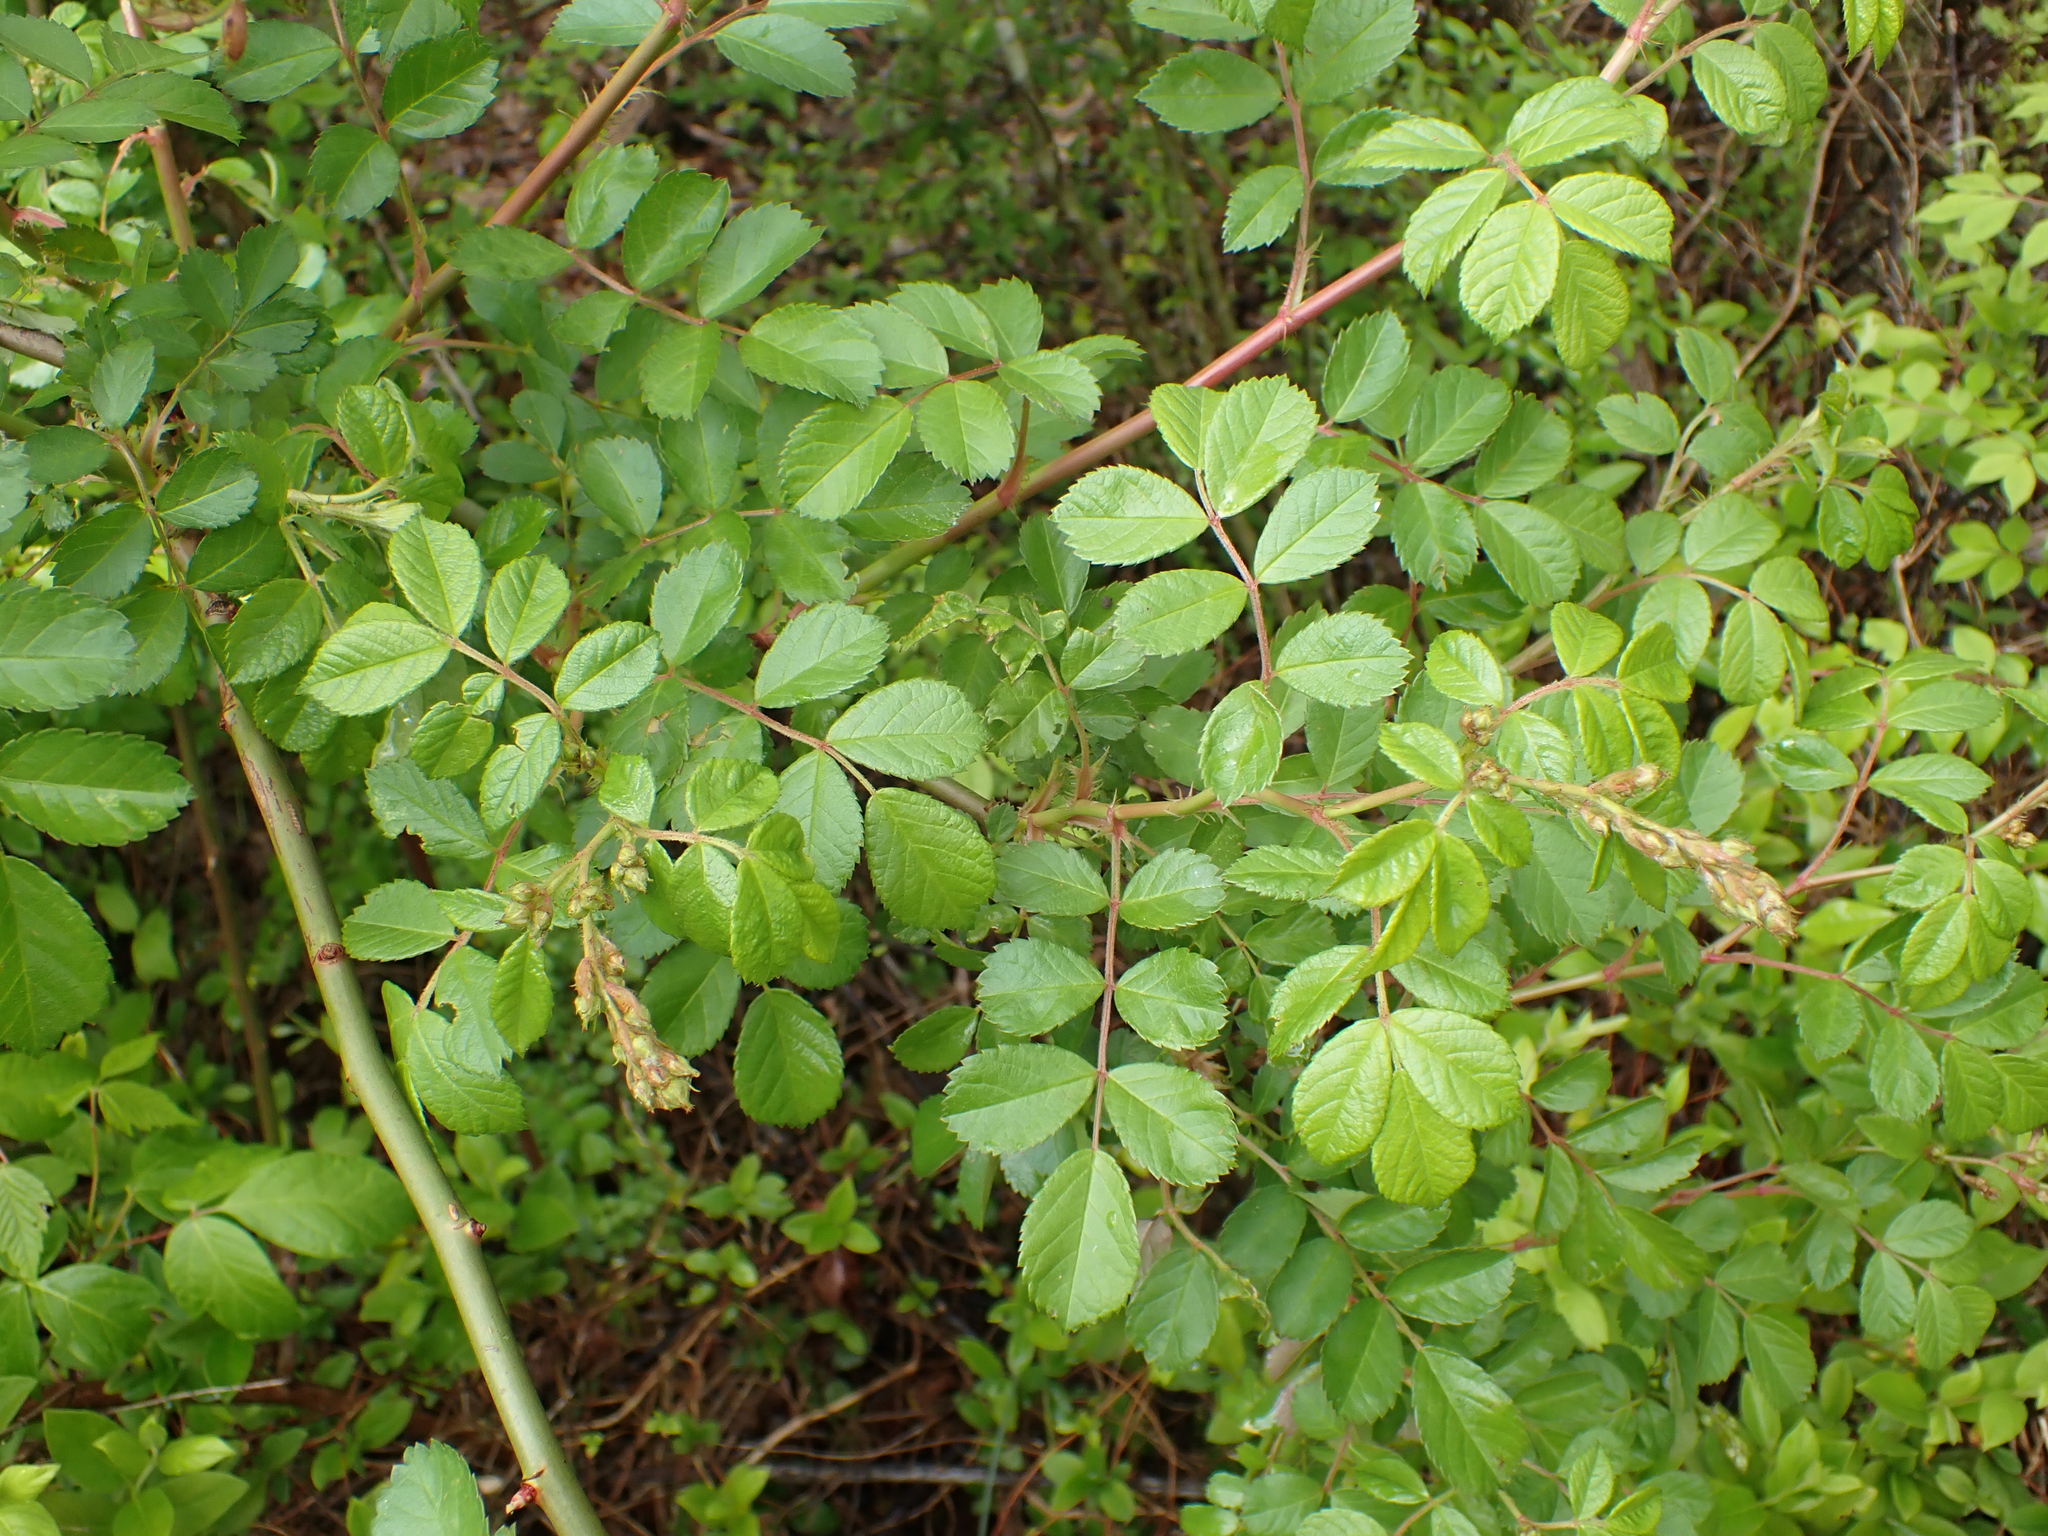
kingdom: Plantae
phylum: Tracheophyta
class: Magnoliopsida
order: Rosales
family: Rosaceae
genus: Rosa
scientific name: Rosa multiflora
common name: Multiflora rose
